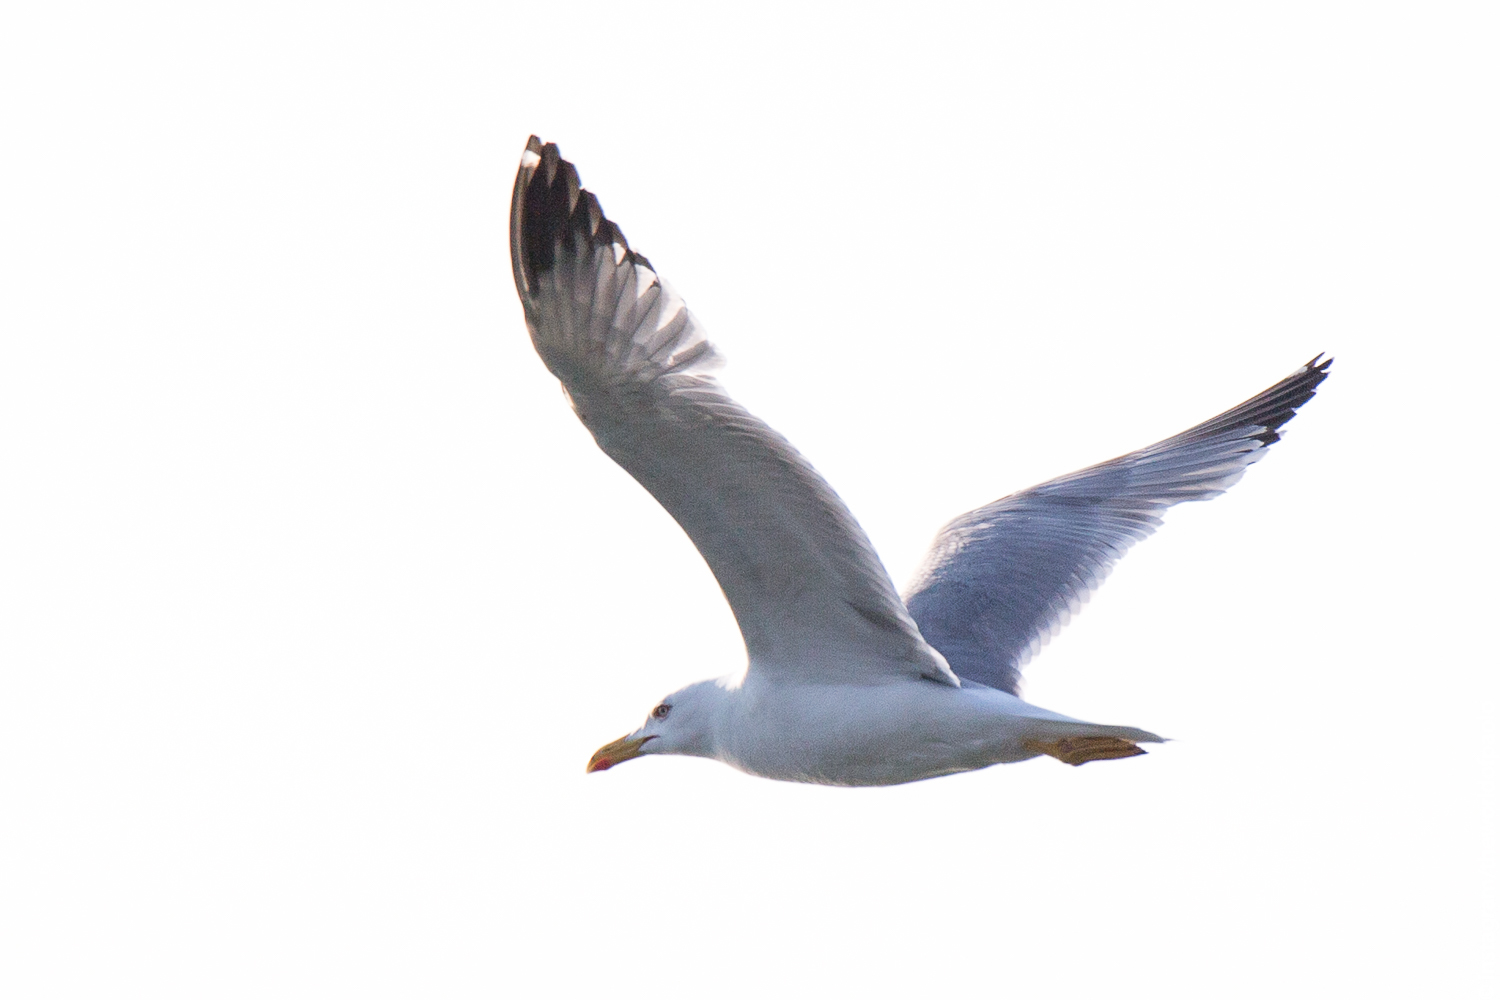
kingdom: Animalia
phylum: Chordata
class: Aves
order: Charadriiformes
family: Laridae
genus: Larus
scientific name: Larus michahellis
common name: Yellow-legged gull
